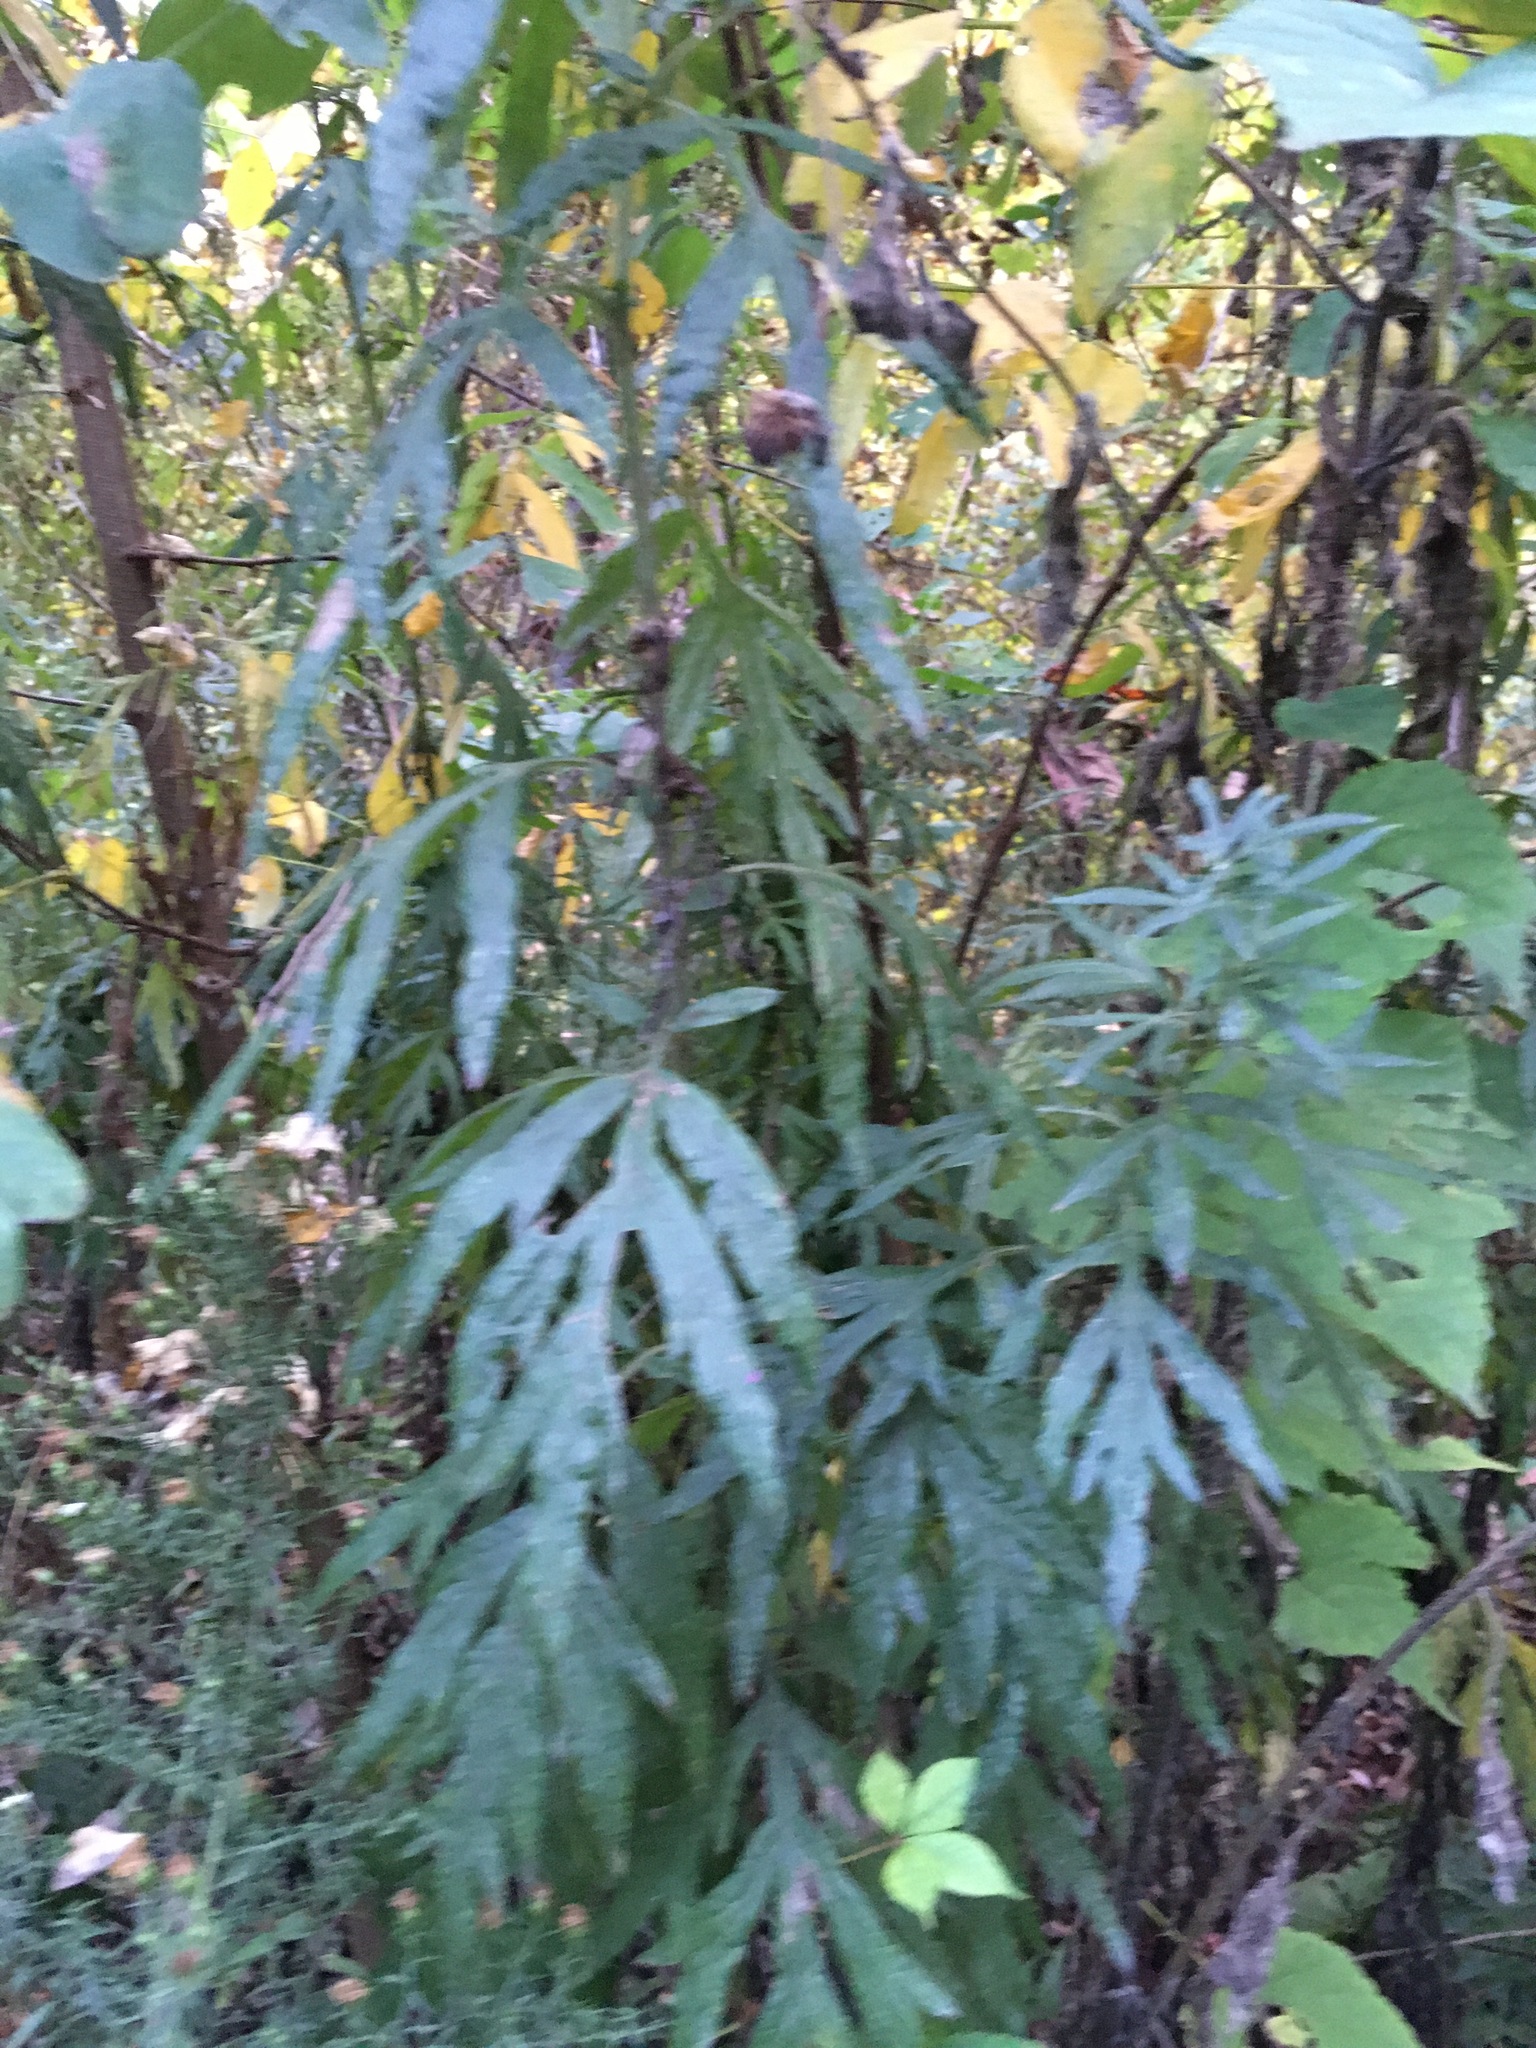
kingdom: Plantae
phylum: Tracheophyta
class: Magnoliopsida
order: Asterales
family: Asteraceae
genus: Artemisia
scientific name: Artemisia vulgaris
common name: Mugwort
